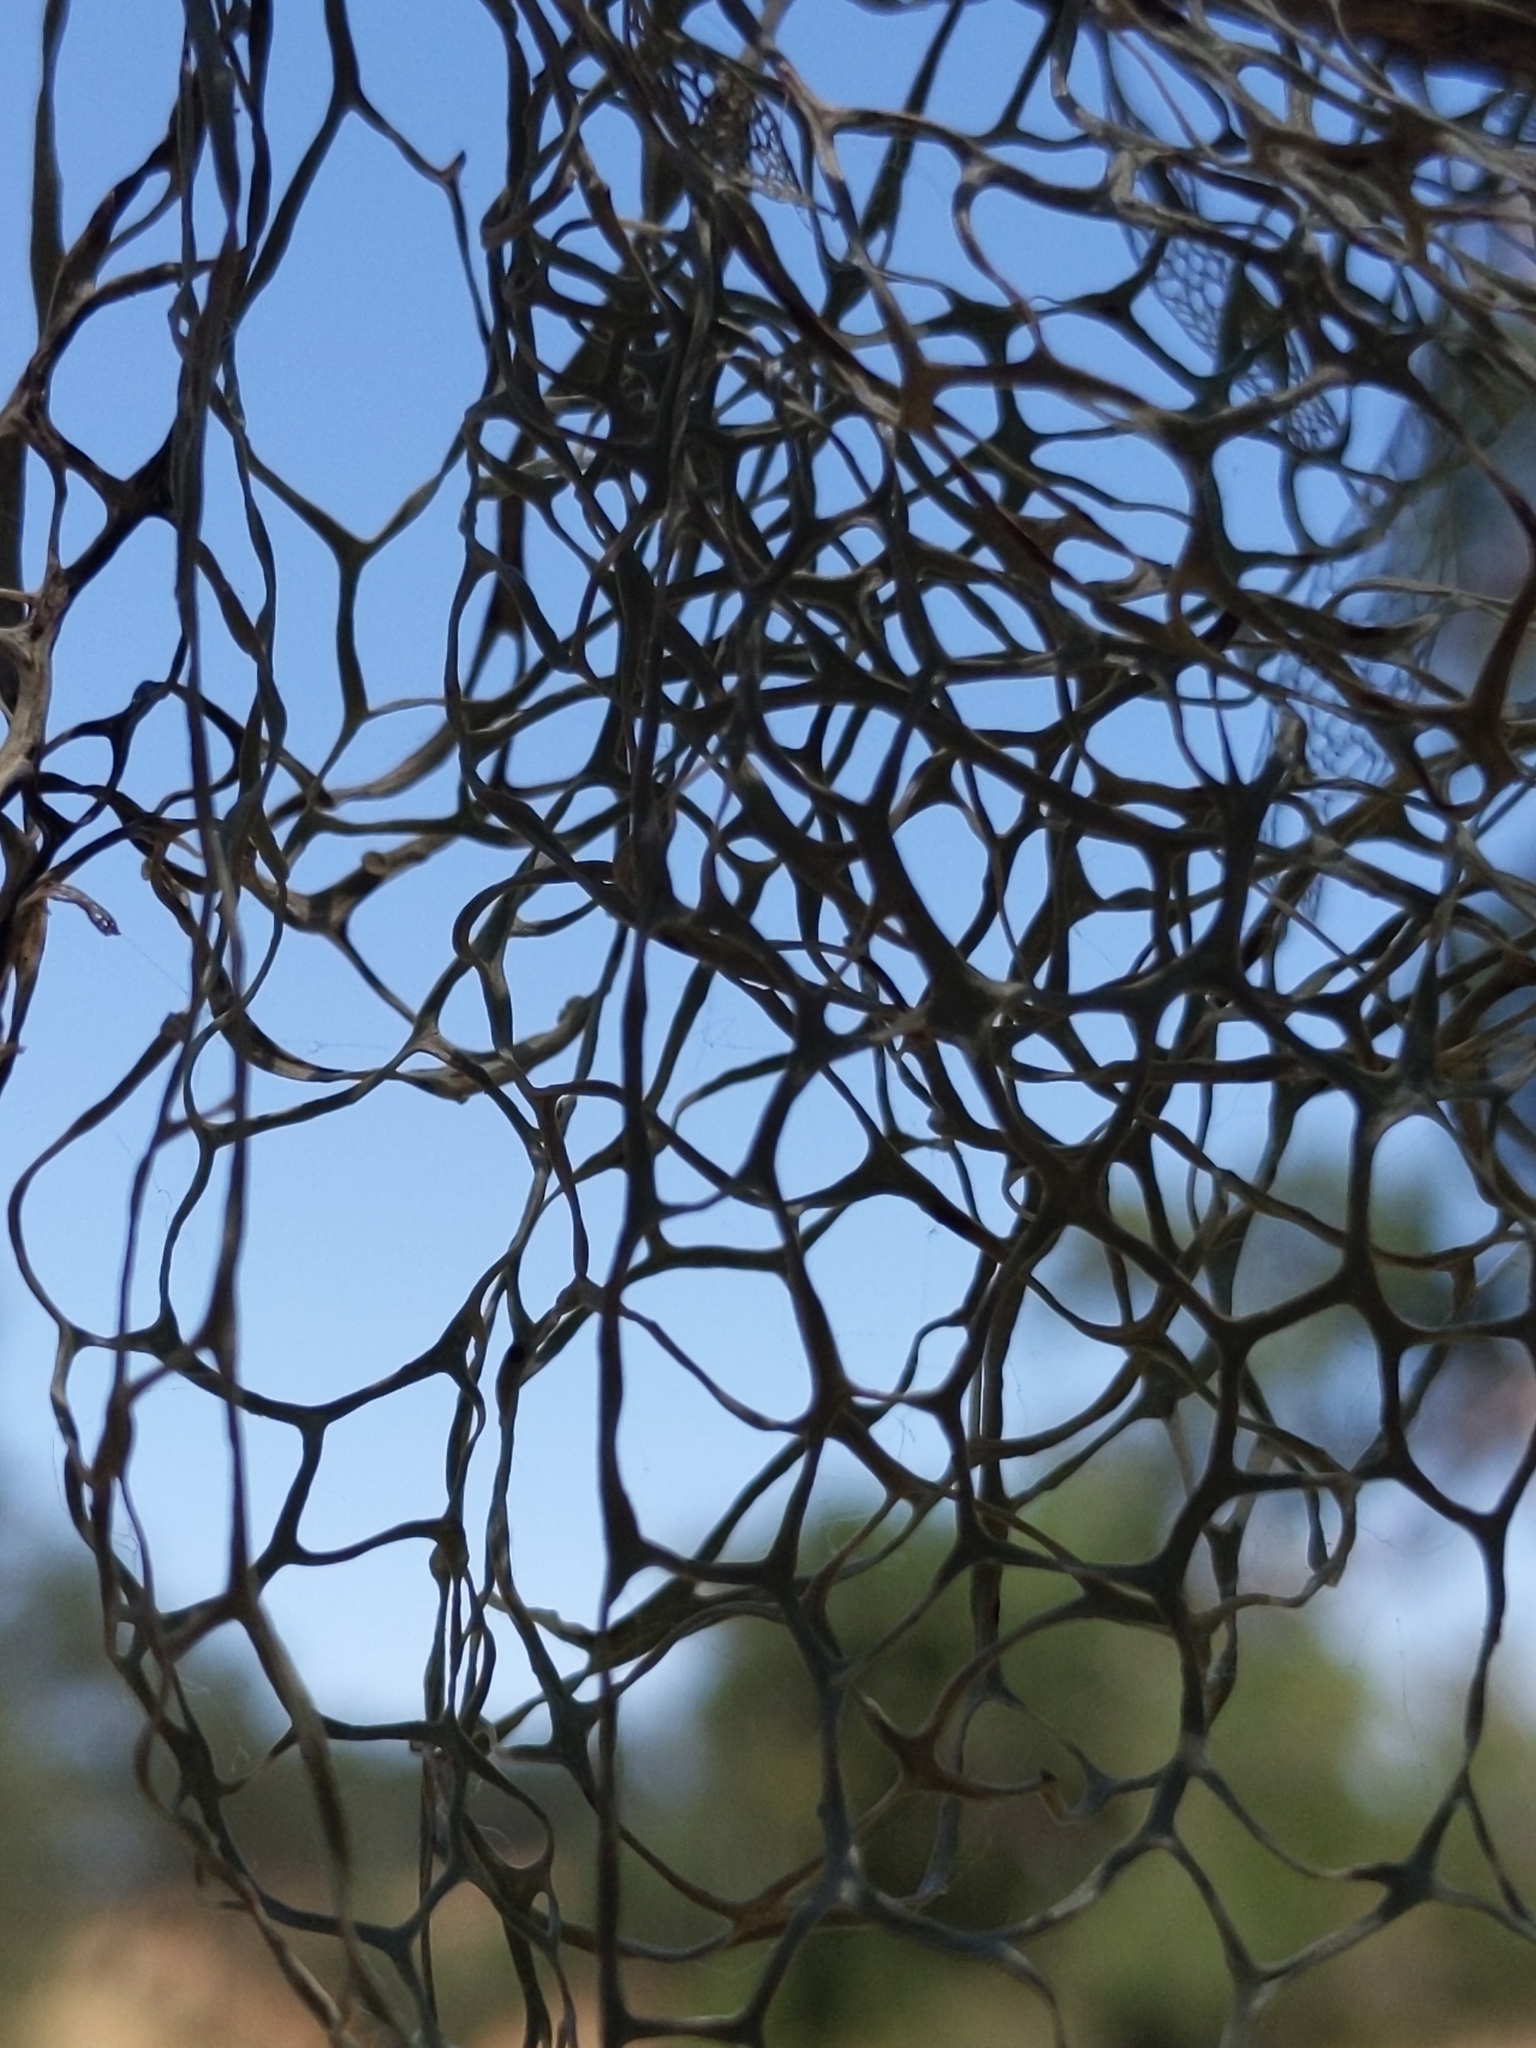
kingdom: Fungi
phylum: Ascomycota
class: Lecanoromycetes
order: Lecanorales
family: Ramalinaceae
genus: Ramalina
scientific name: Ramalina menziesii
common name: Lace lichen
